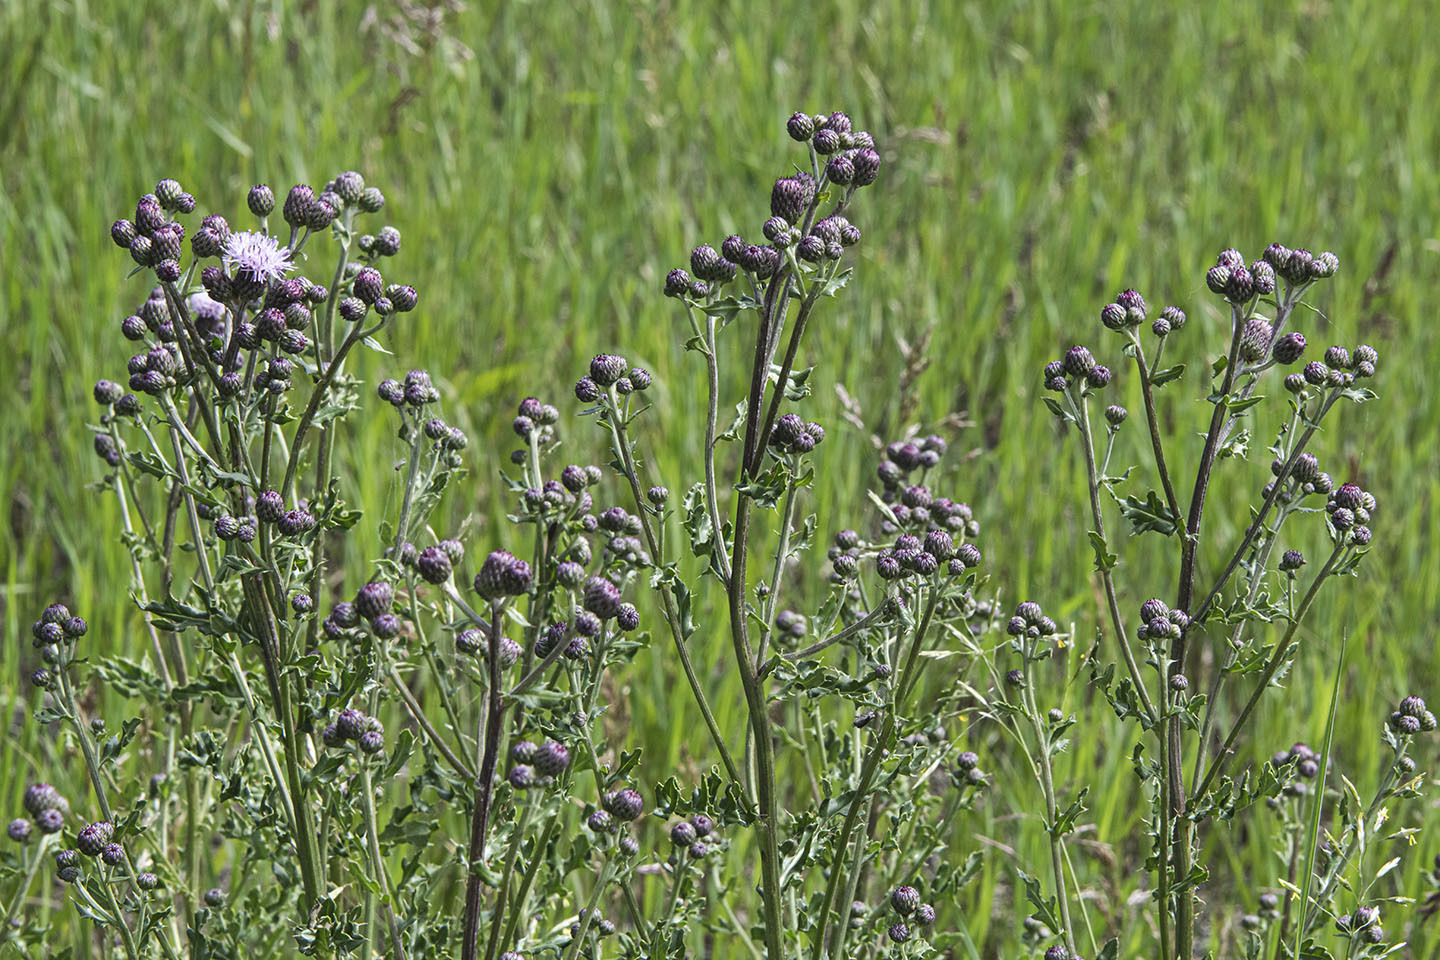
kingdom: Plantae
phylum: Tracheophyta
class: Magnoliopsida
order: Asterales
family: Asteraceae
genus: Cirsium
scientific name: Cirsium arvense
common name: Creeping thistle
